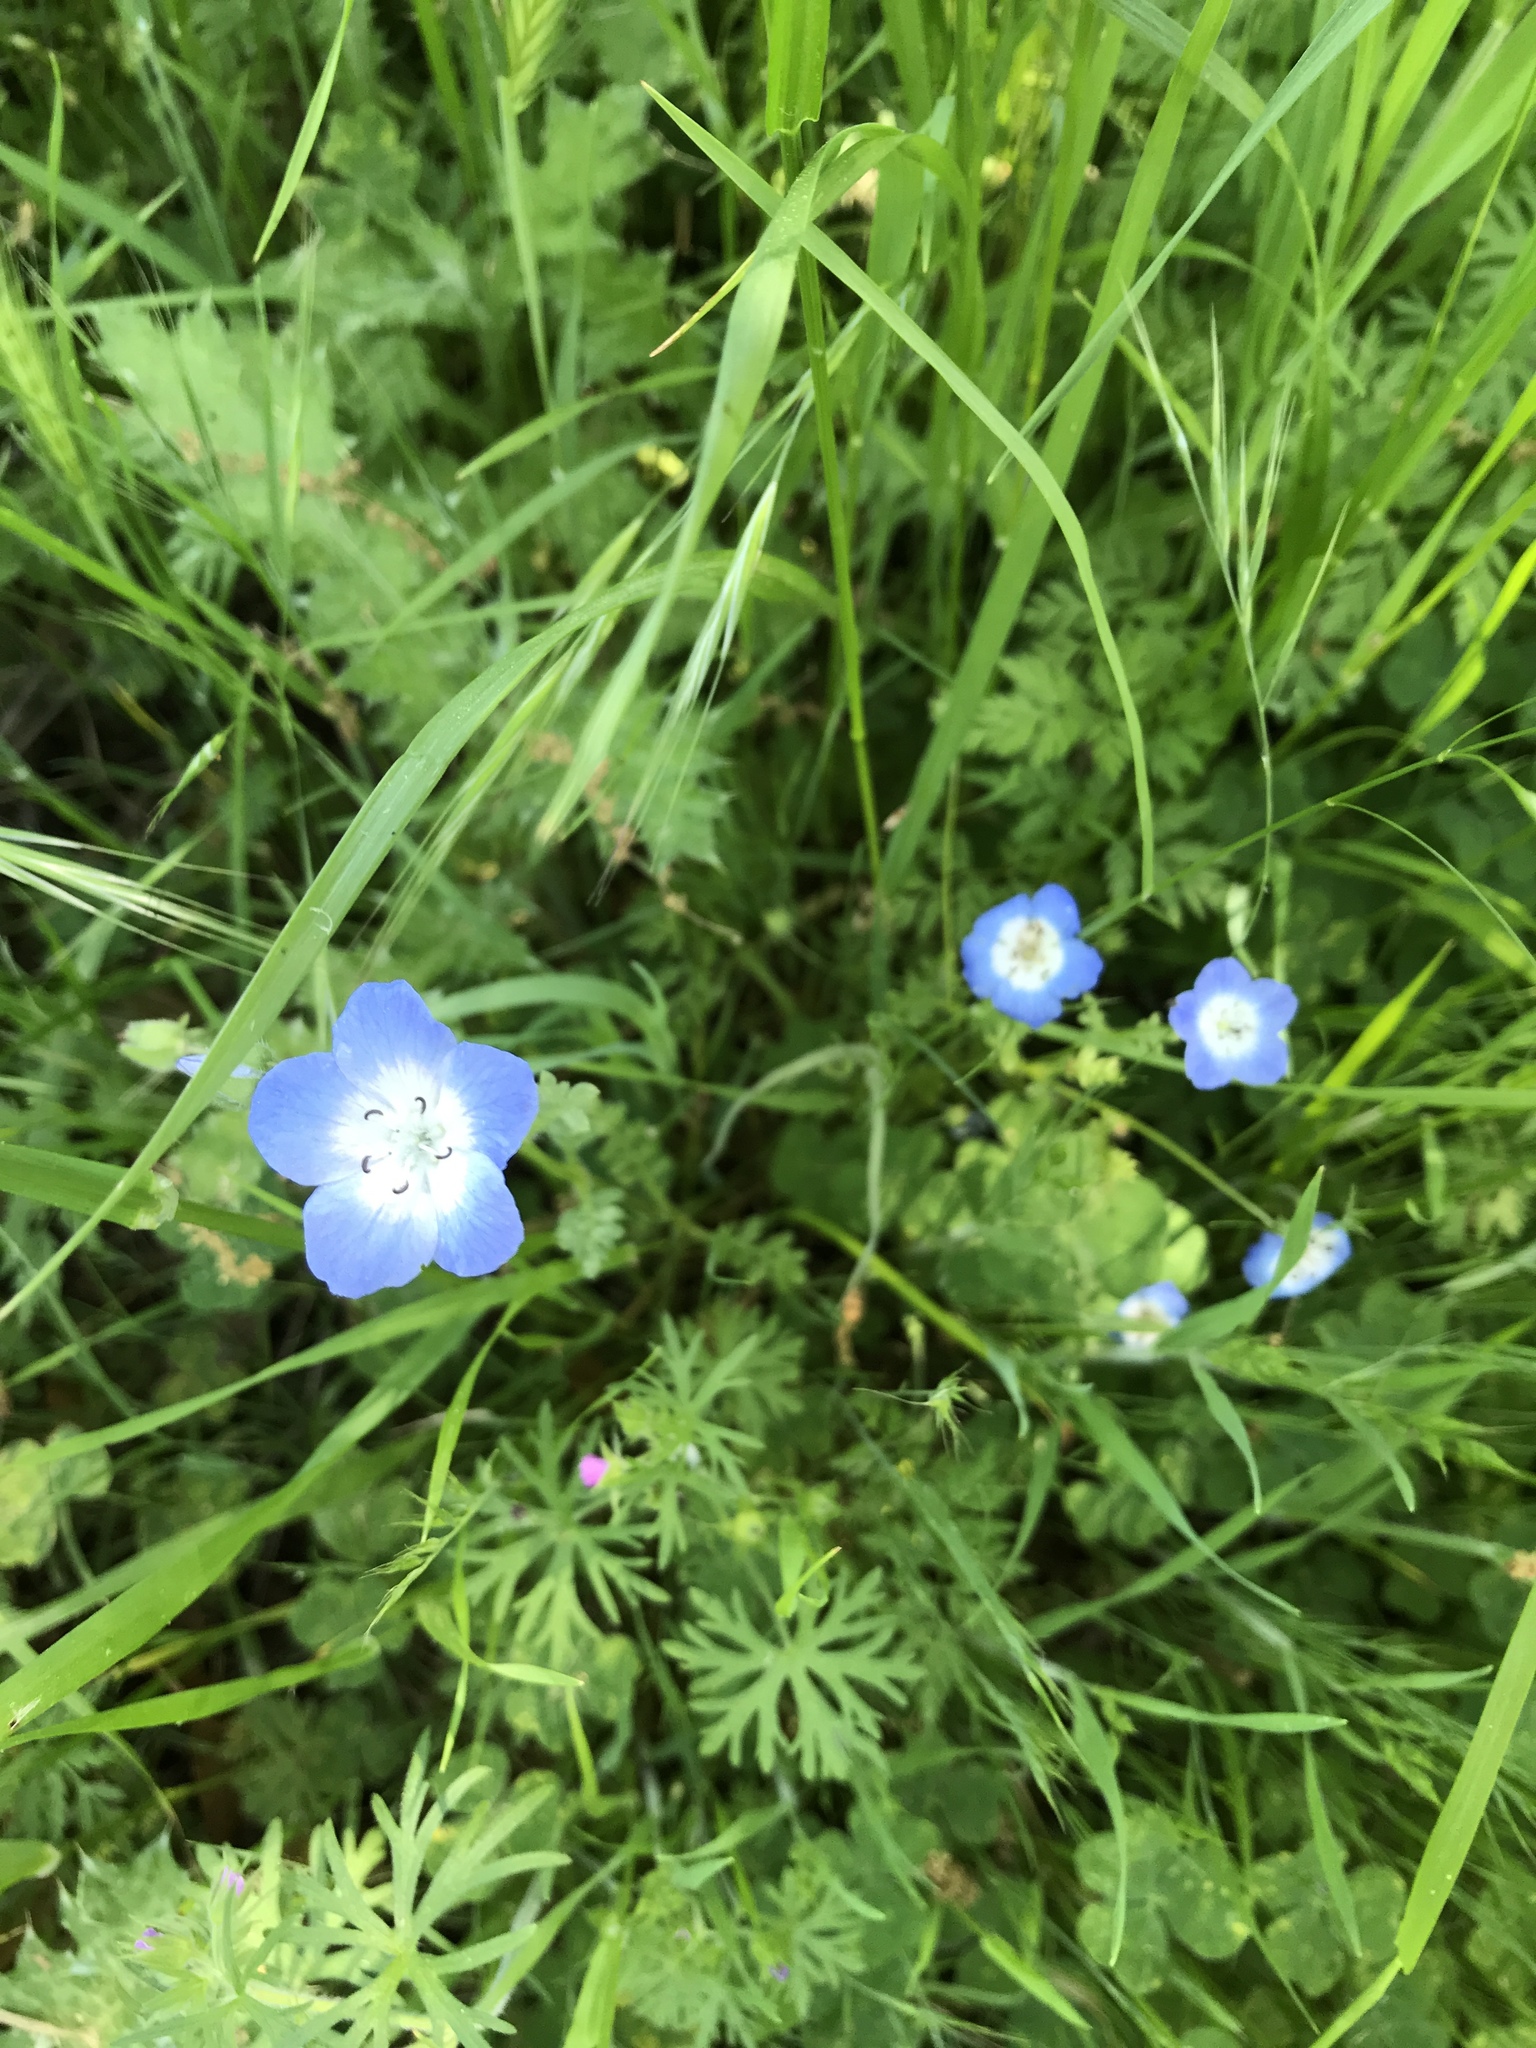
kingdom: Plantae
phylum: Tracheophyta
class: Magnoliopsida
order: Boraginales
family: Hydrophyllaceae
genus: Nemophila
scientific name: Nemophila menziesii
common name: Baby's-blue-eyes
